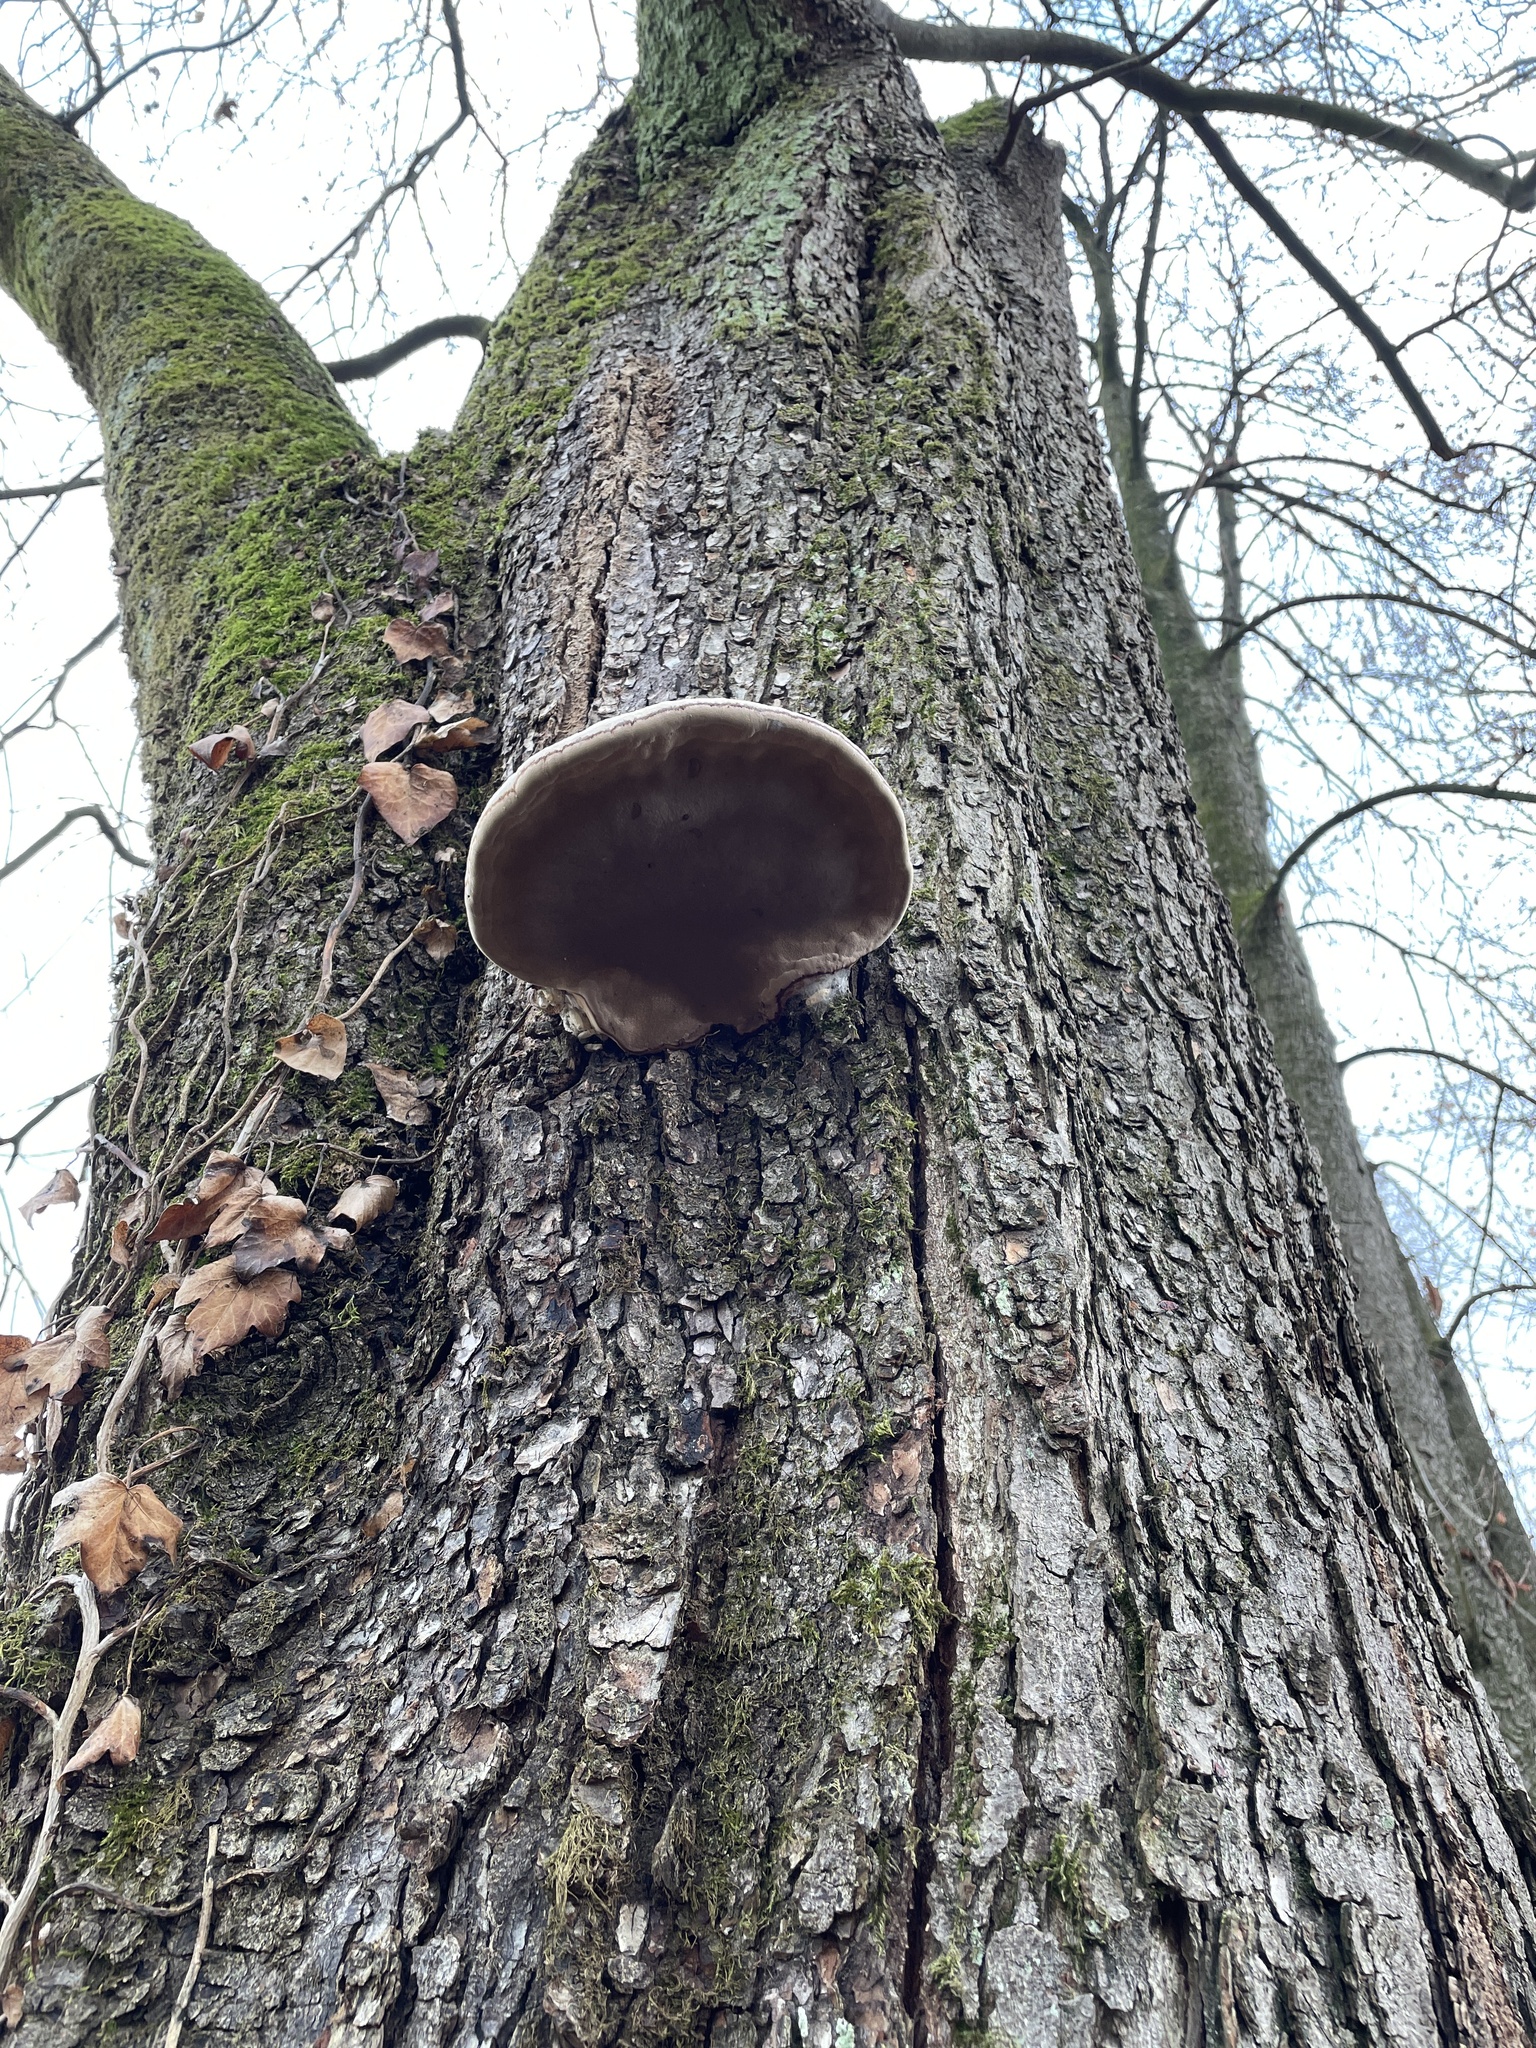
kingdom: Fungi
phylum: Basidiomycota
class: Agaricomycetes
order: Polyporales
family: Polyporaceae
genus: Fomes
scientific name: Fomes fomentarius
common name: Hoof fungus
